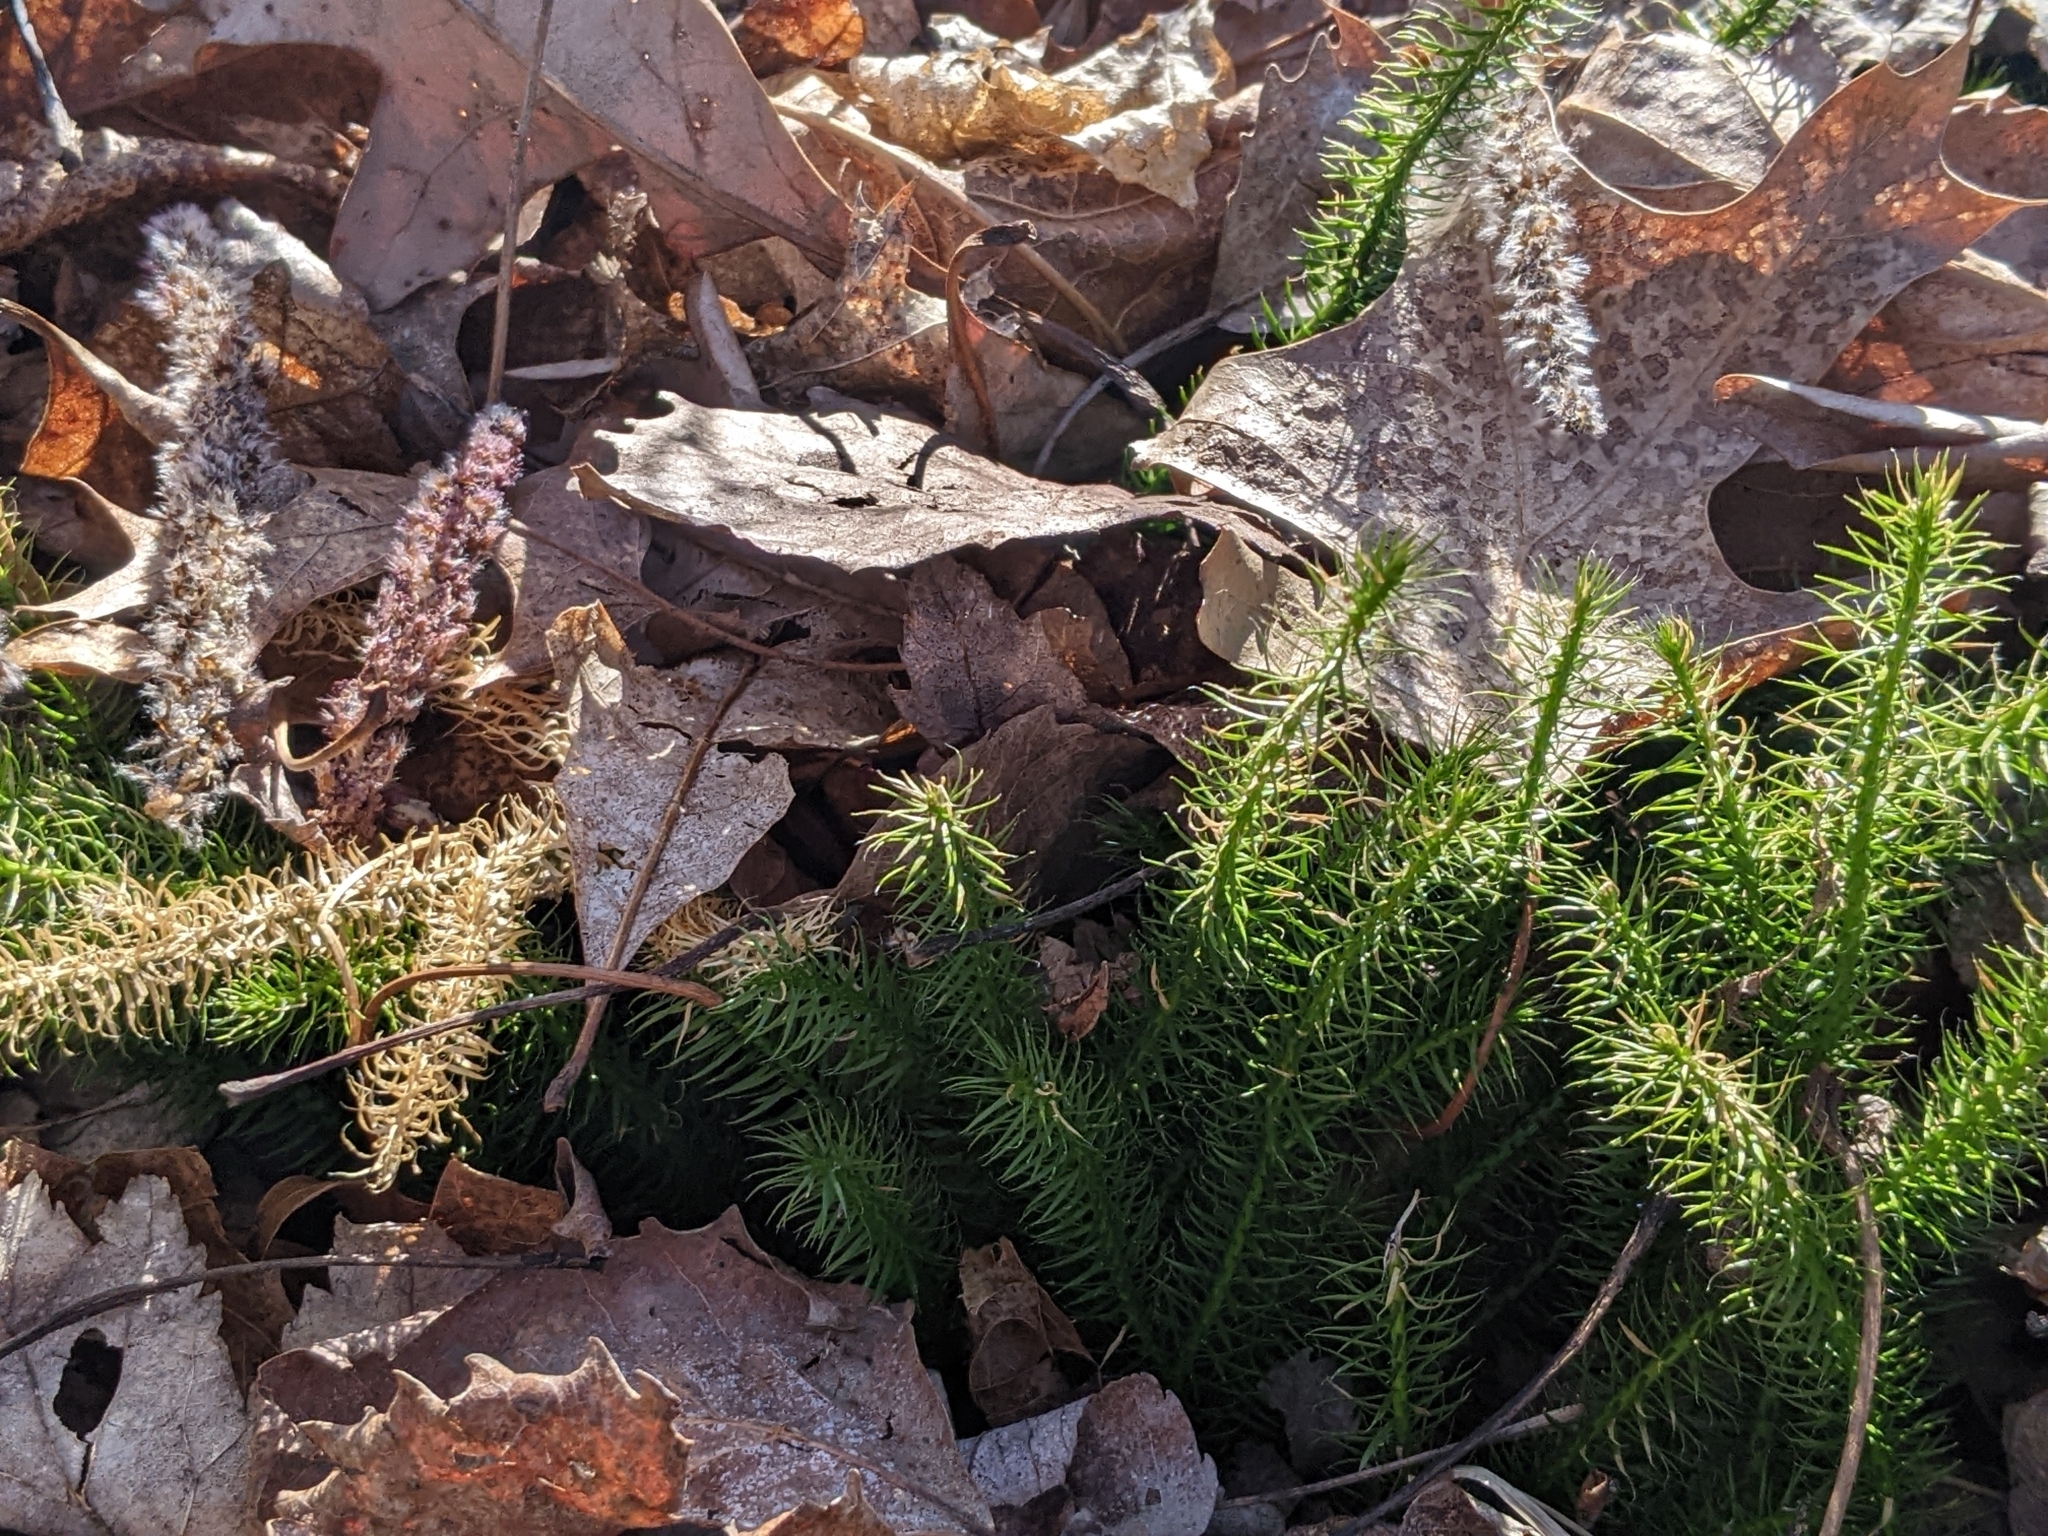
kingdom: Plantae
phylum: Tracheophyta
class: Lycopodiopsida
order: Lycopodiales
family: Lycopodiaceae
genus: Spinulum
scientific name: Spinulum annotinum
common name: Interrupted club-moss
